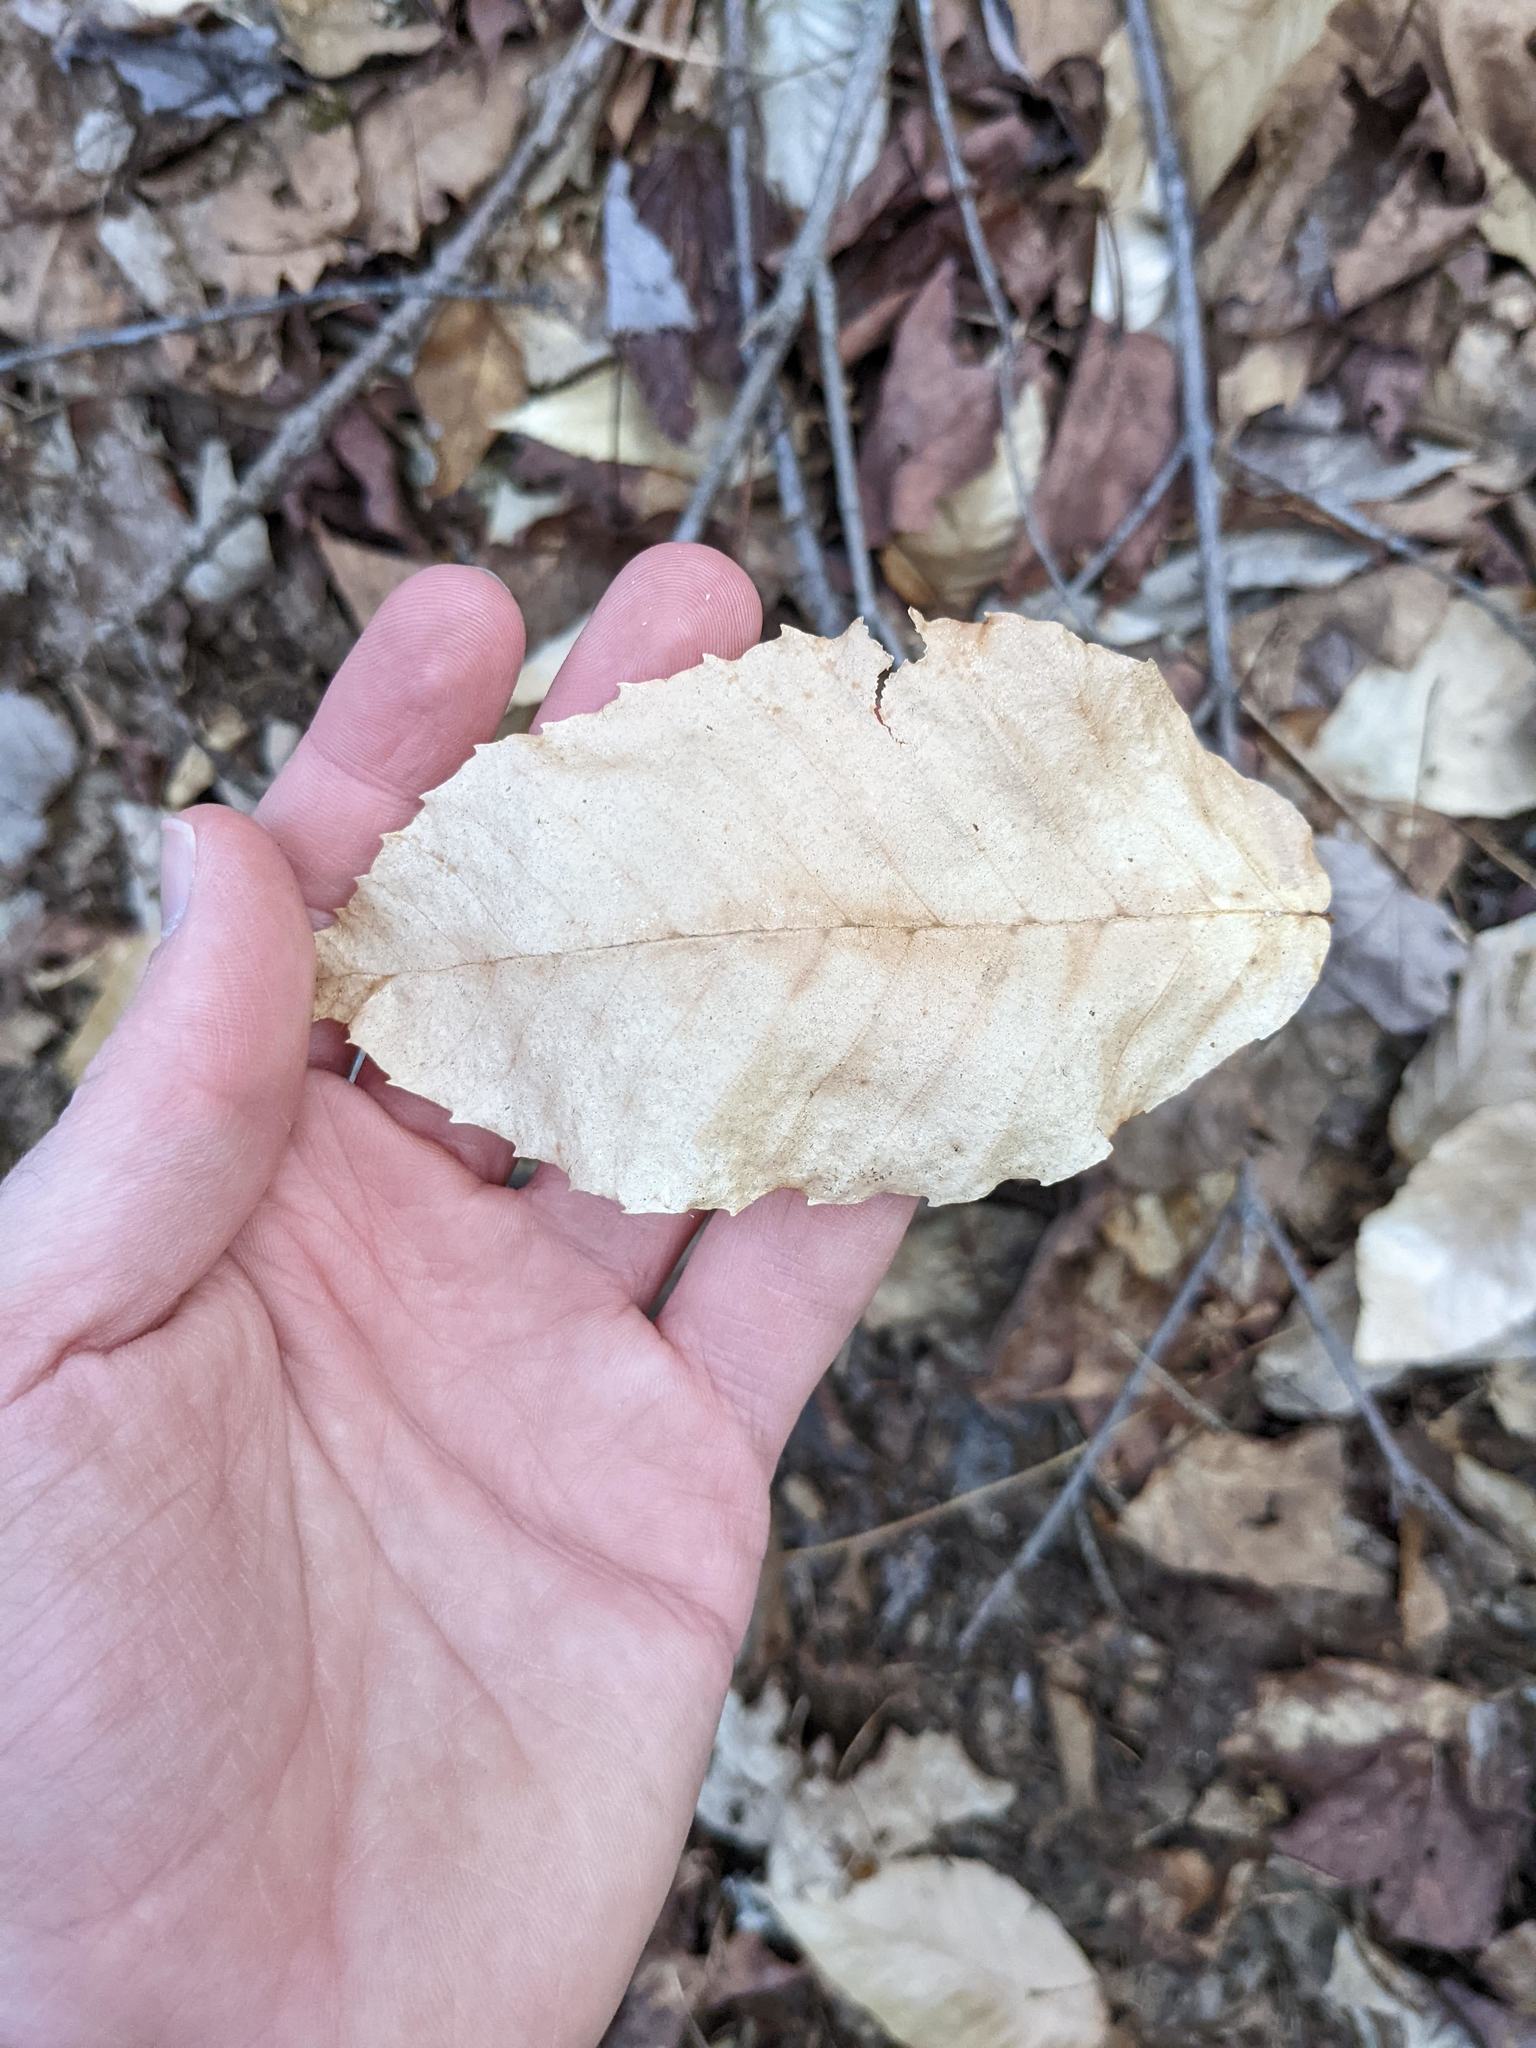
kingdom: Plantae
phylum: Tracheophyta
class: Magnoliopsida
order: Fagales
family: Fagaceae
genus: Fagus
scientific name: Fagus grandifolia
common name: American beech
